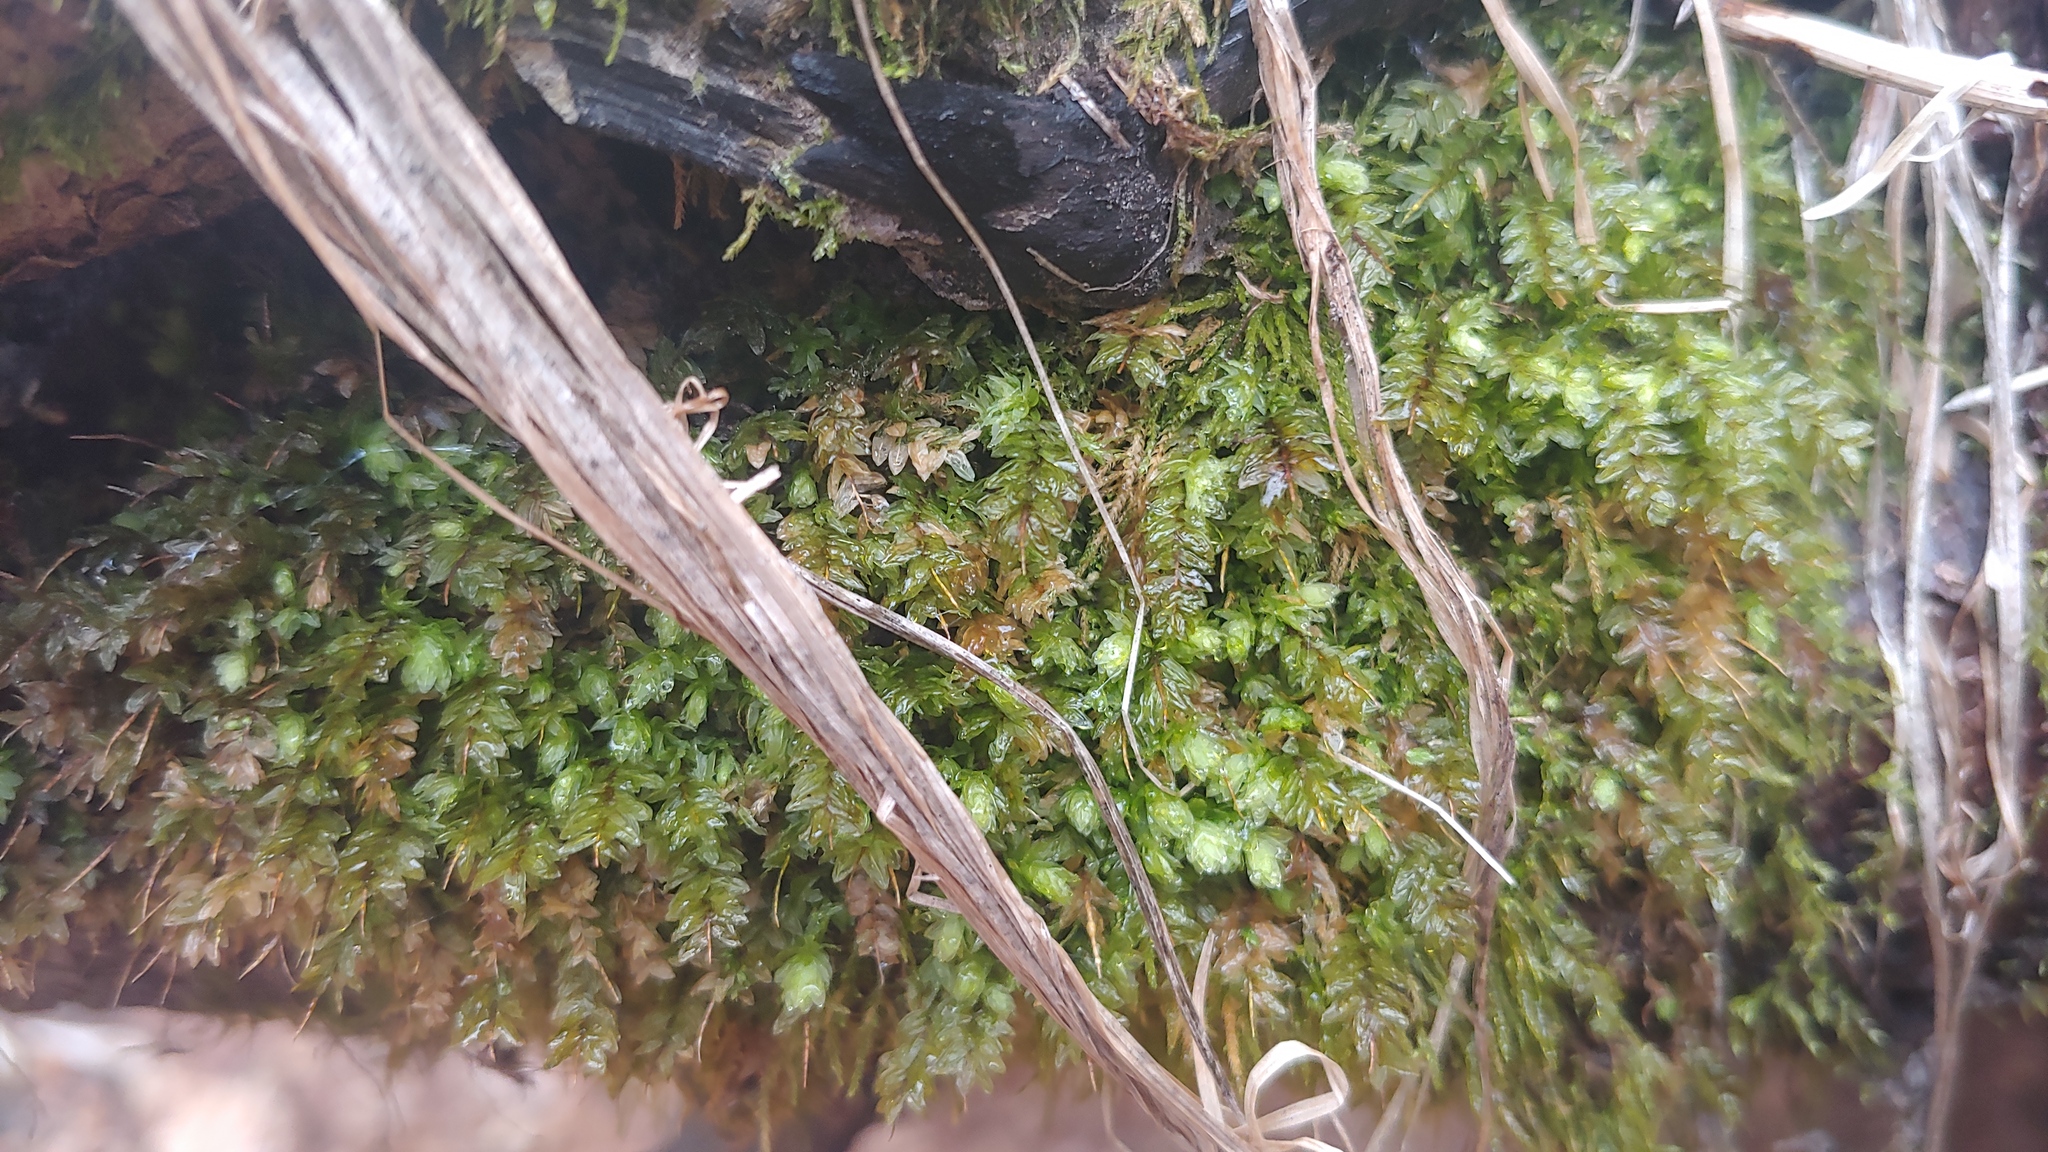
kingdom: Plantae
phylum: Bryophyta
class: Bryopsida
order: Aulacomniales
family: Aulacomniaceae
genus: Aulacomnium
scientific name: Aulacomnium heterostichum
